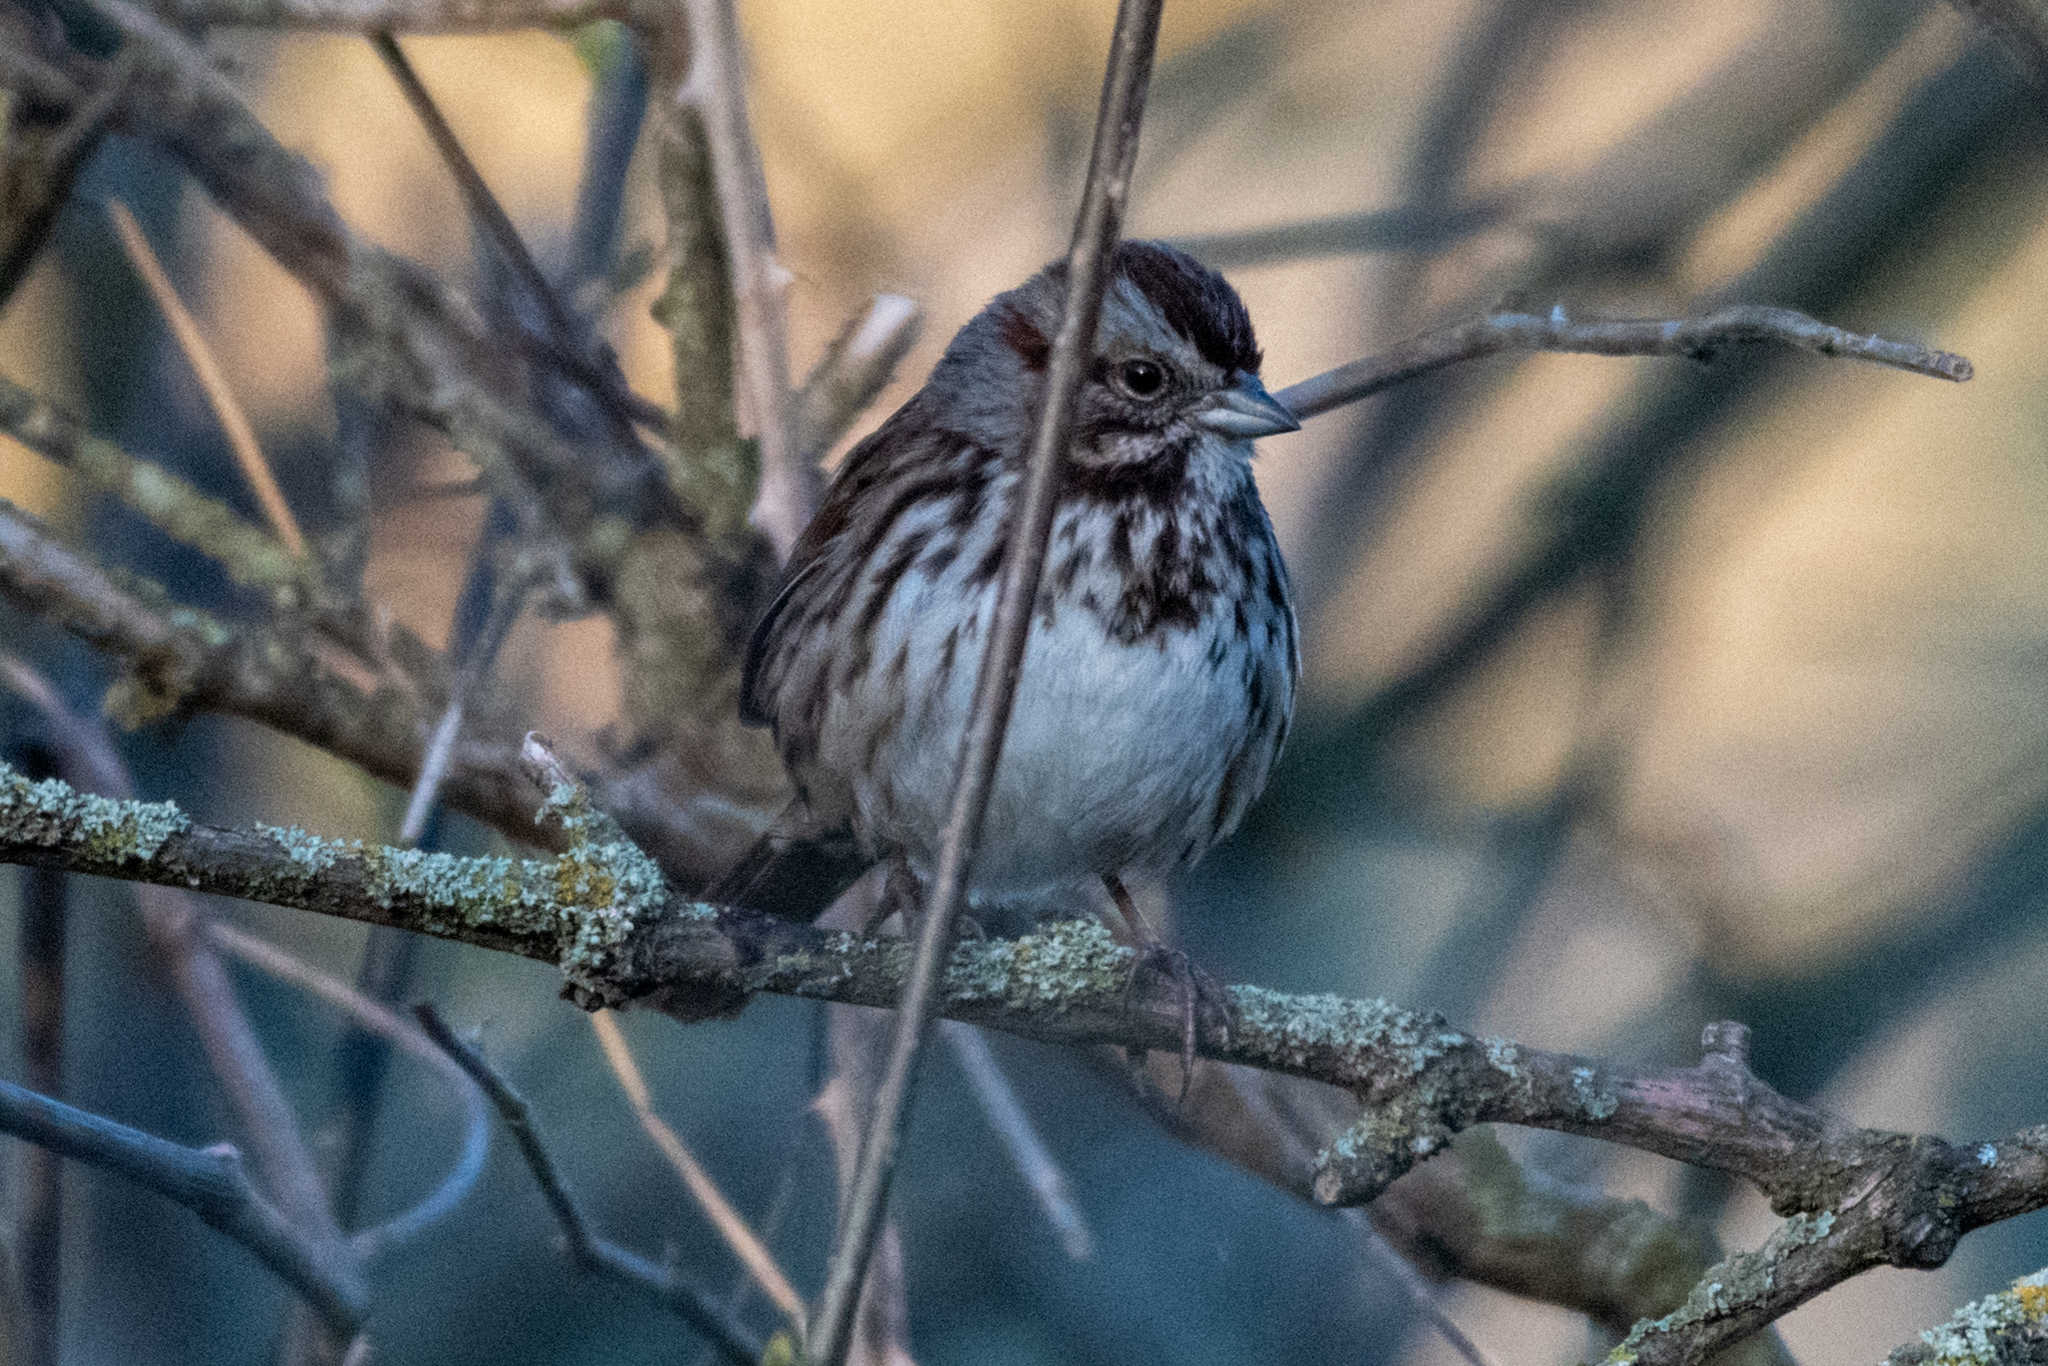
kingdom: Animalia
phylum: Chordata
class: Aves
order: Passeriformes
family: Passerellidae
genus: Melospiza
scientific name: Melospiza melodia
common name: Song sparrow
